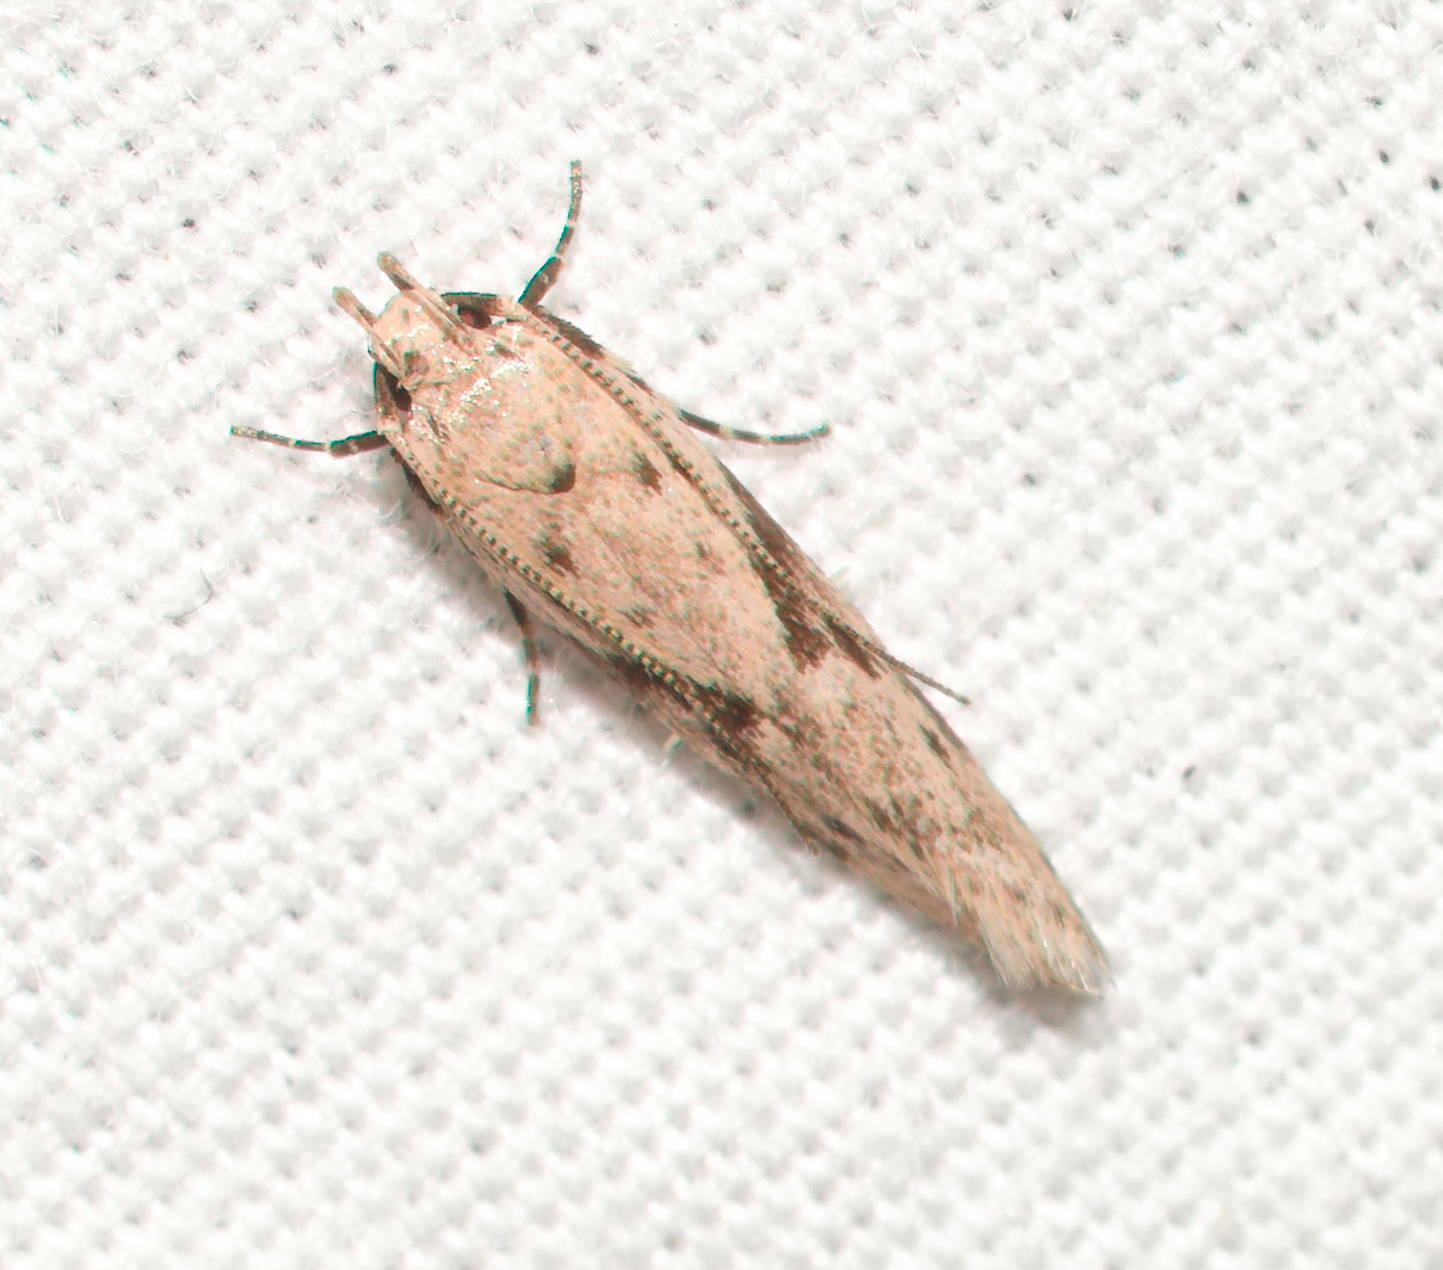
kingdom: Animalia
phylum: Arthropoda
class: Insecta
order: Lepidoptera
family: Cosmopterigidae
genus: Hyposmochoma
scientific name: Hyposmochoma nephelodes
